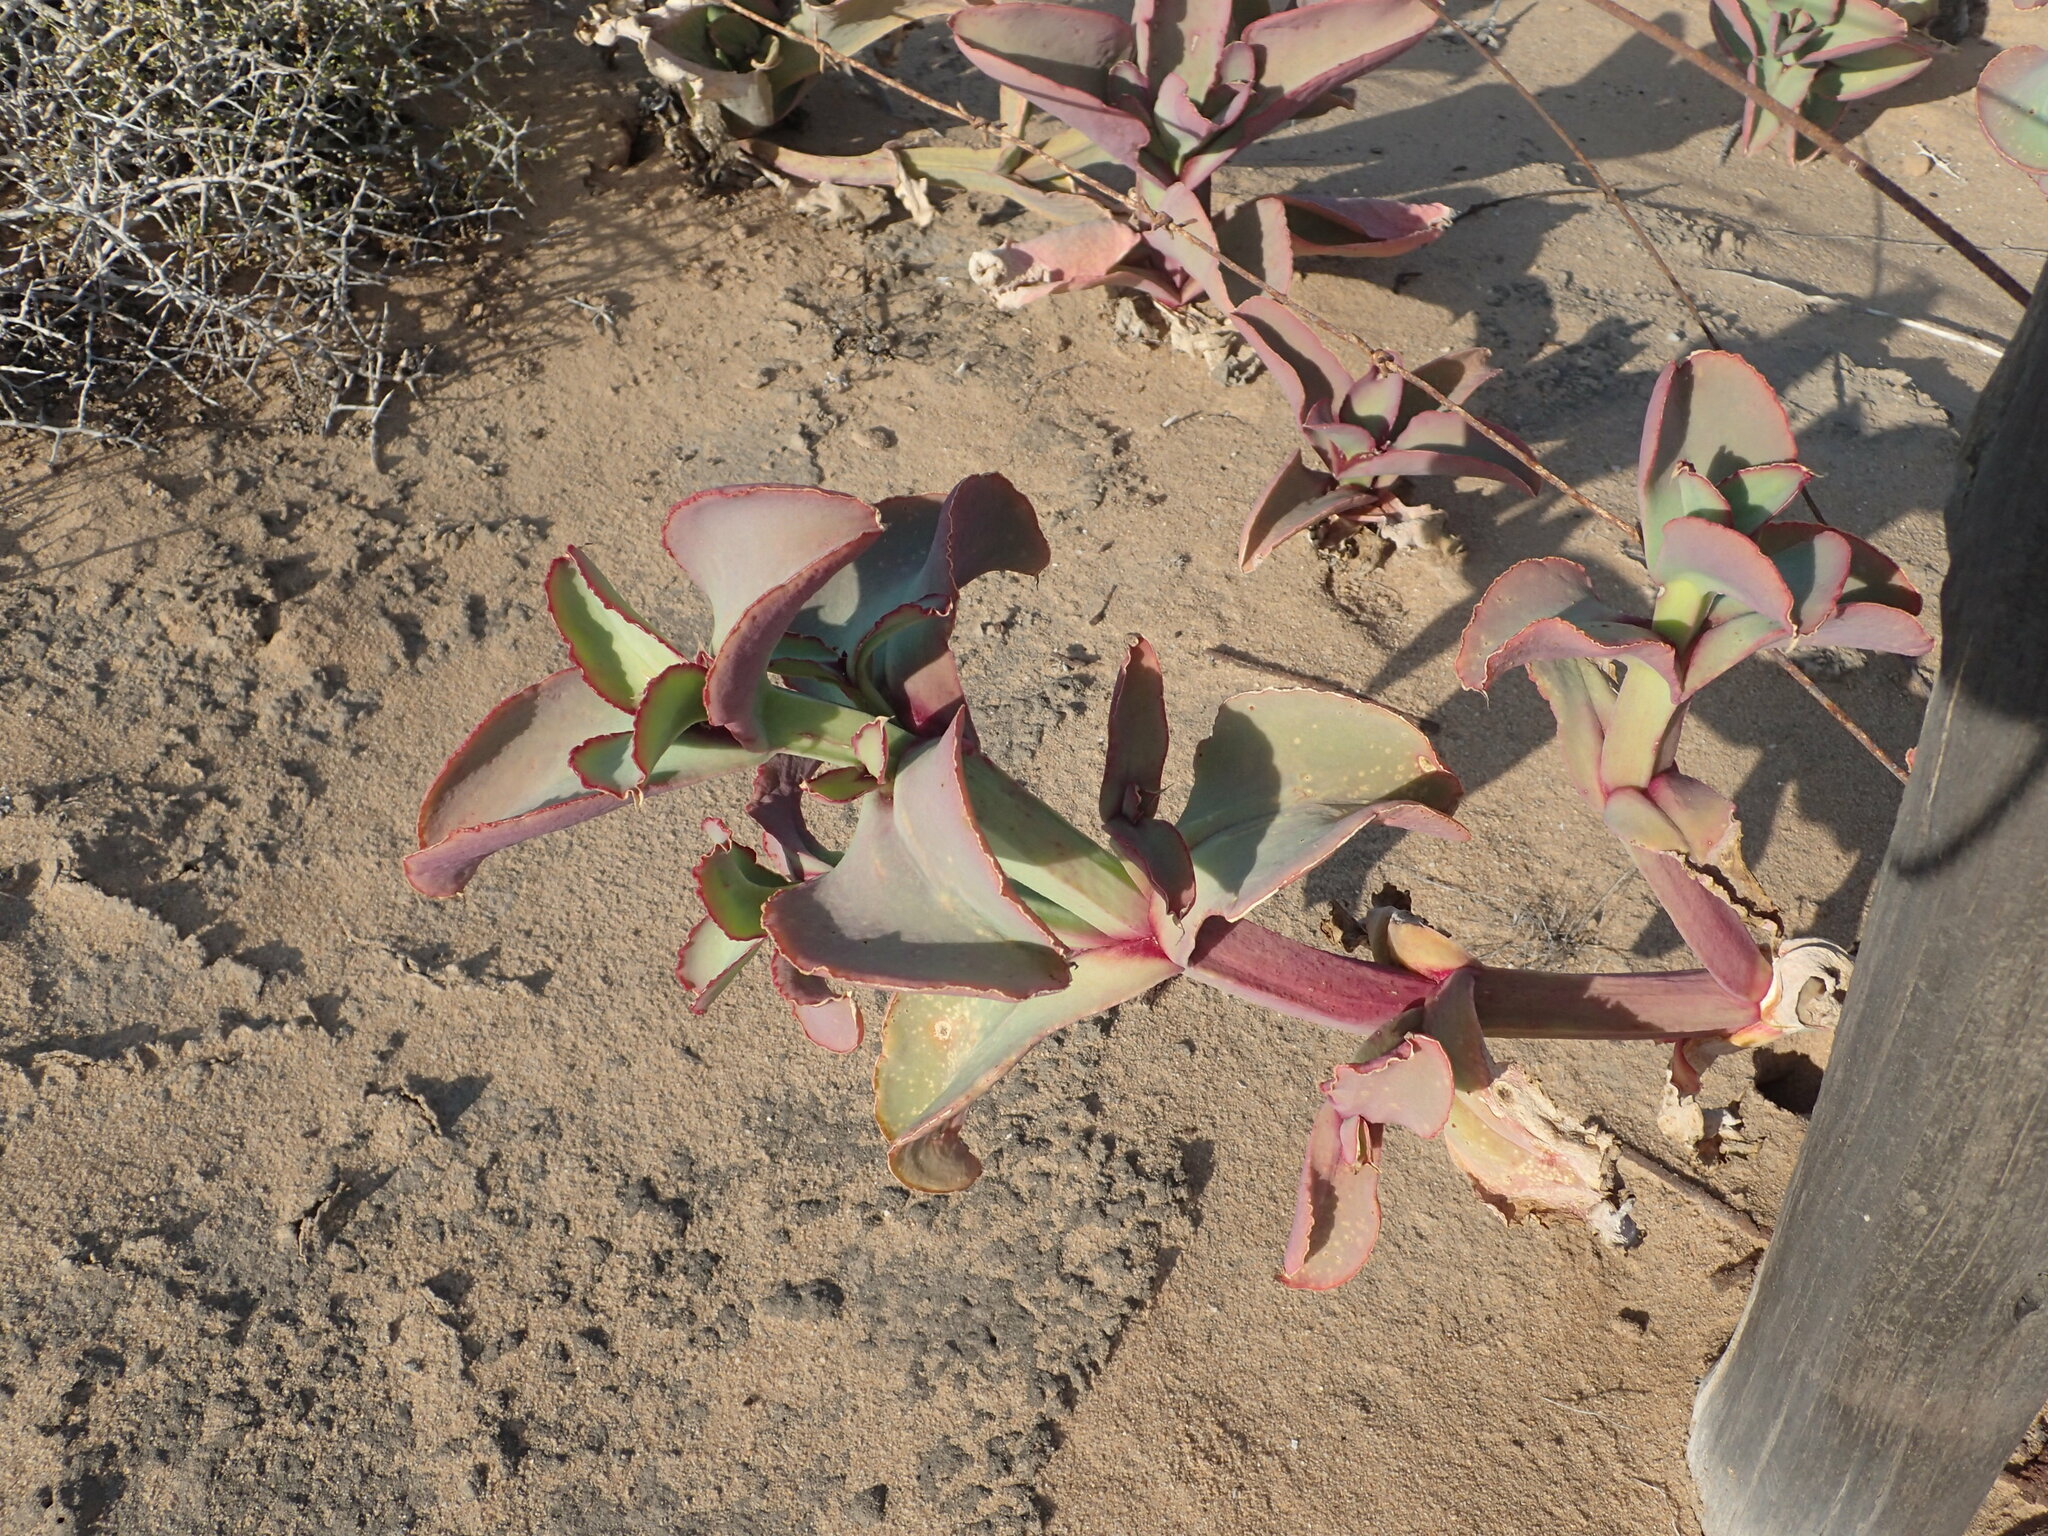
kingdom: Plantae
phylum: Tracheophyta
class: Magnoliopsida
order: Caryophyllales
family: Aizoaceae
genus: Mesembryanthemum
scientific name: Mesembryanthemum barklyi
